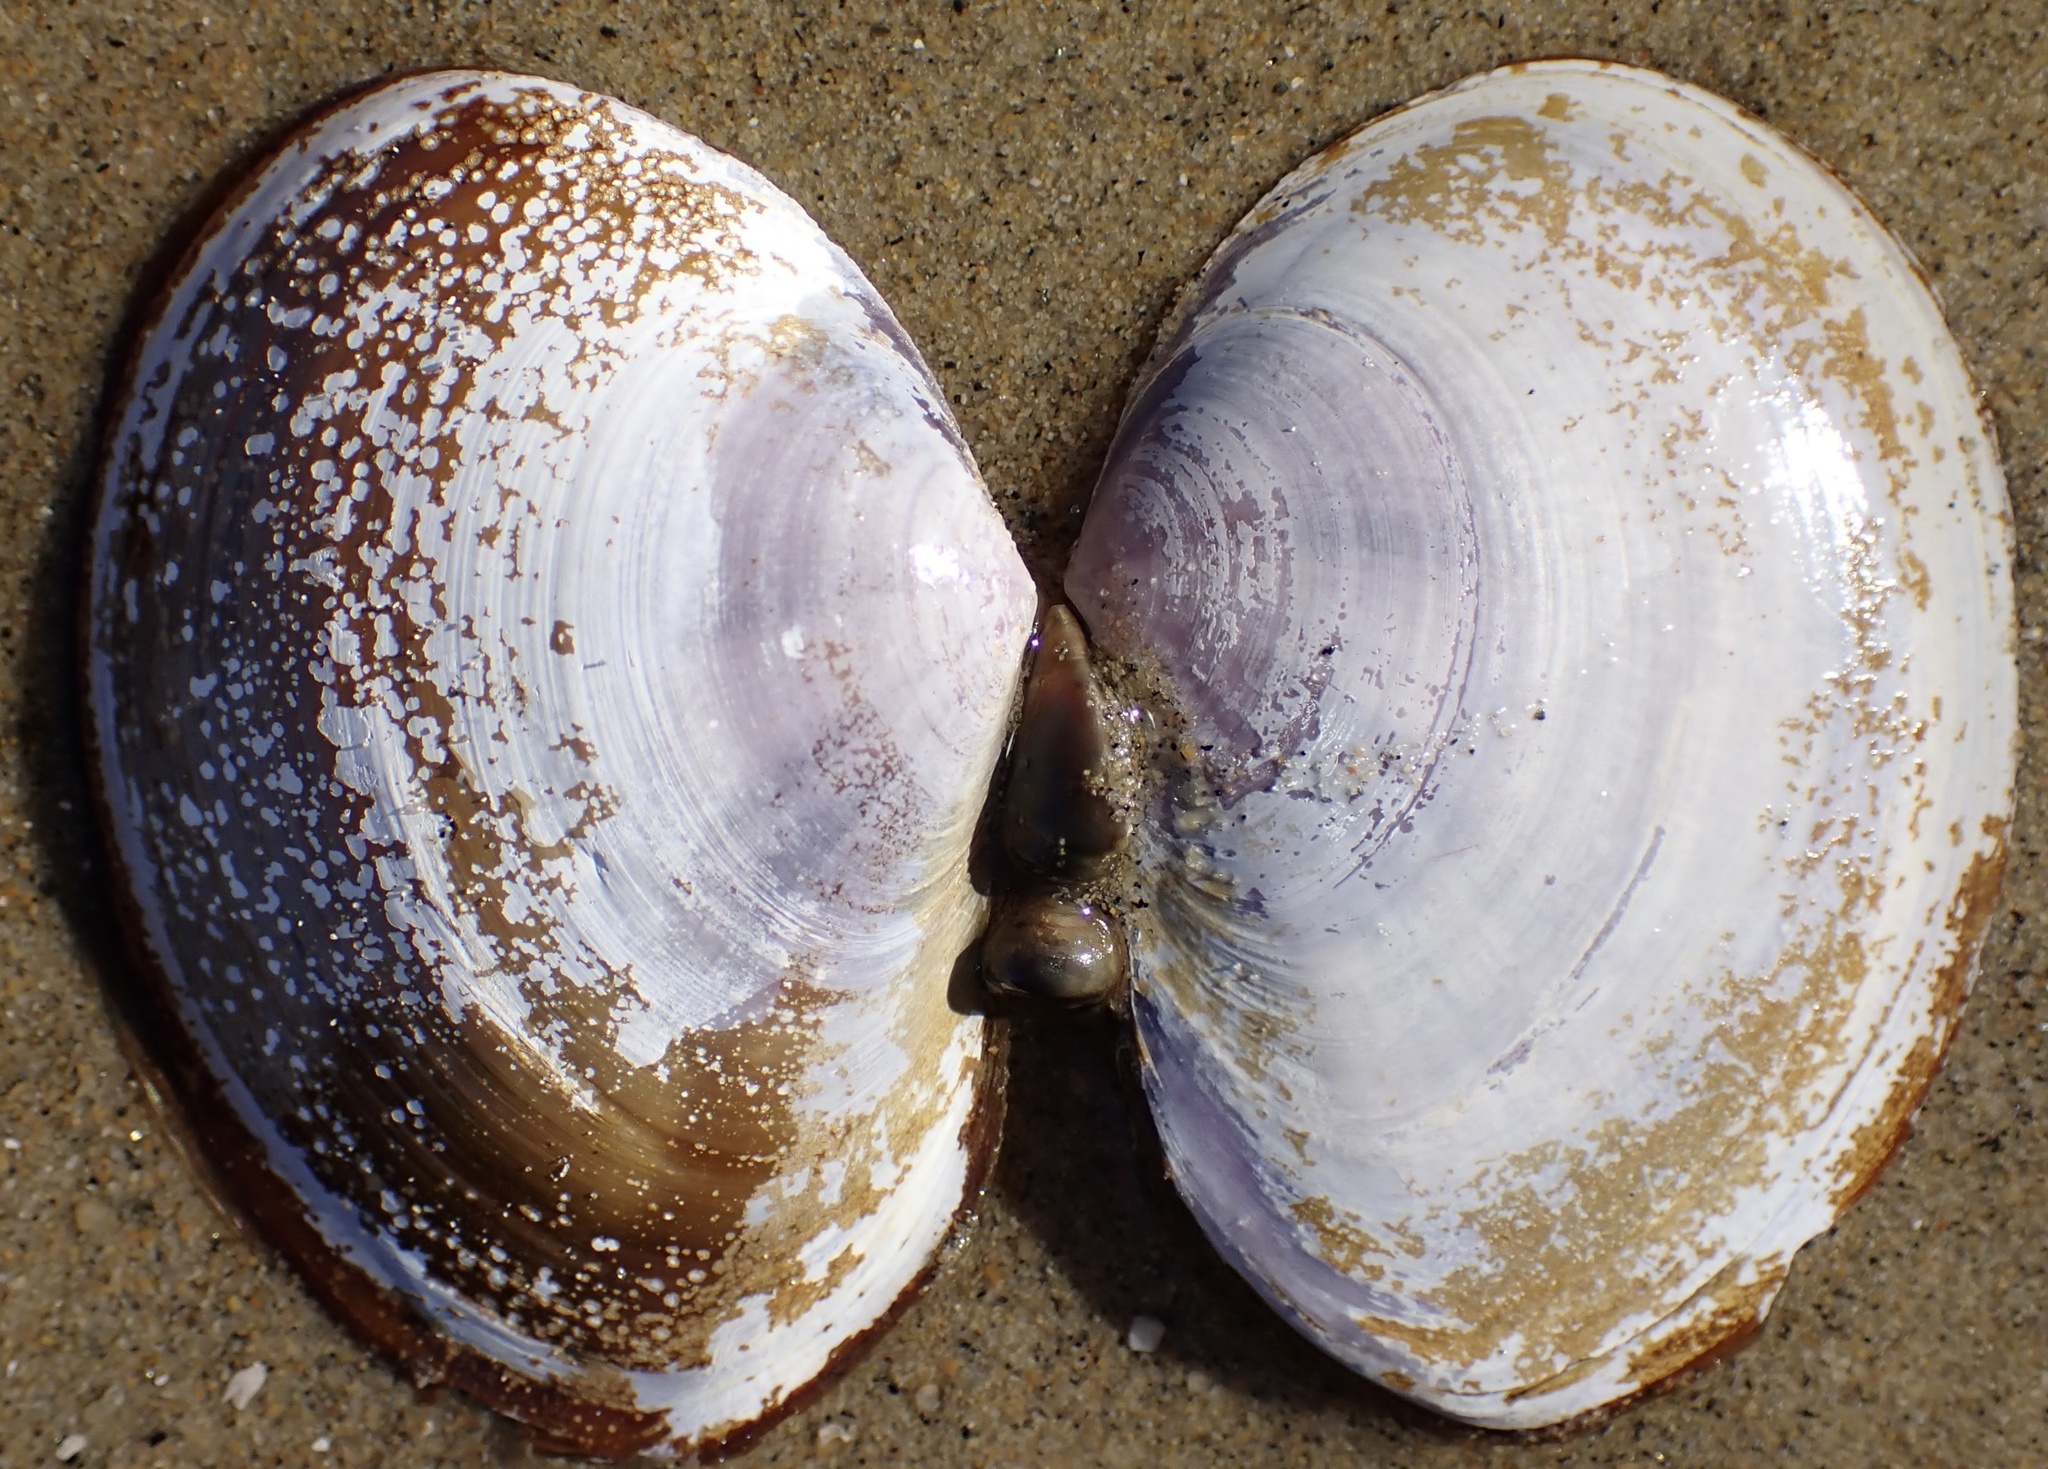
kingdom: Animalia
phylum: Mollusca
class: Bivalvia
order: Cardiida
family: Psammobiidae
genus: Nuttallia
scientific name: Nuttallia nuttallii
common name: California mahogany-clam
